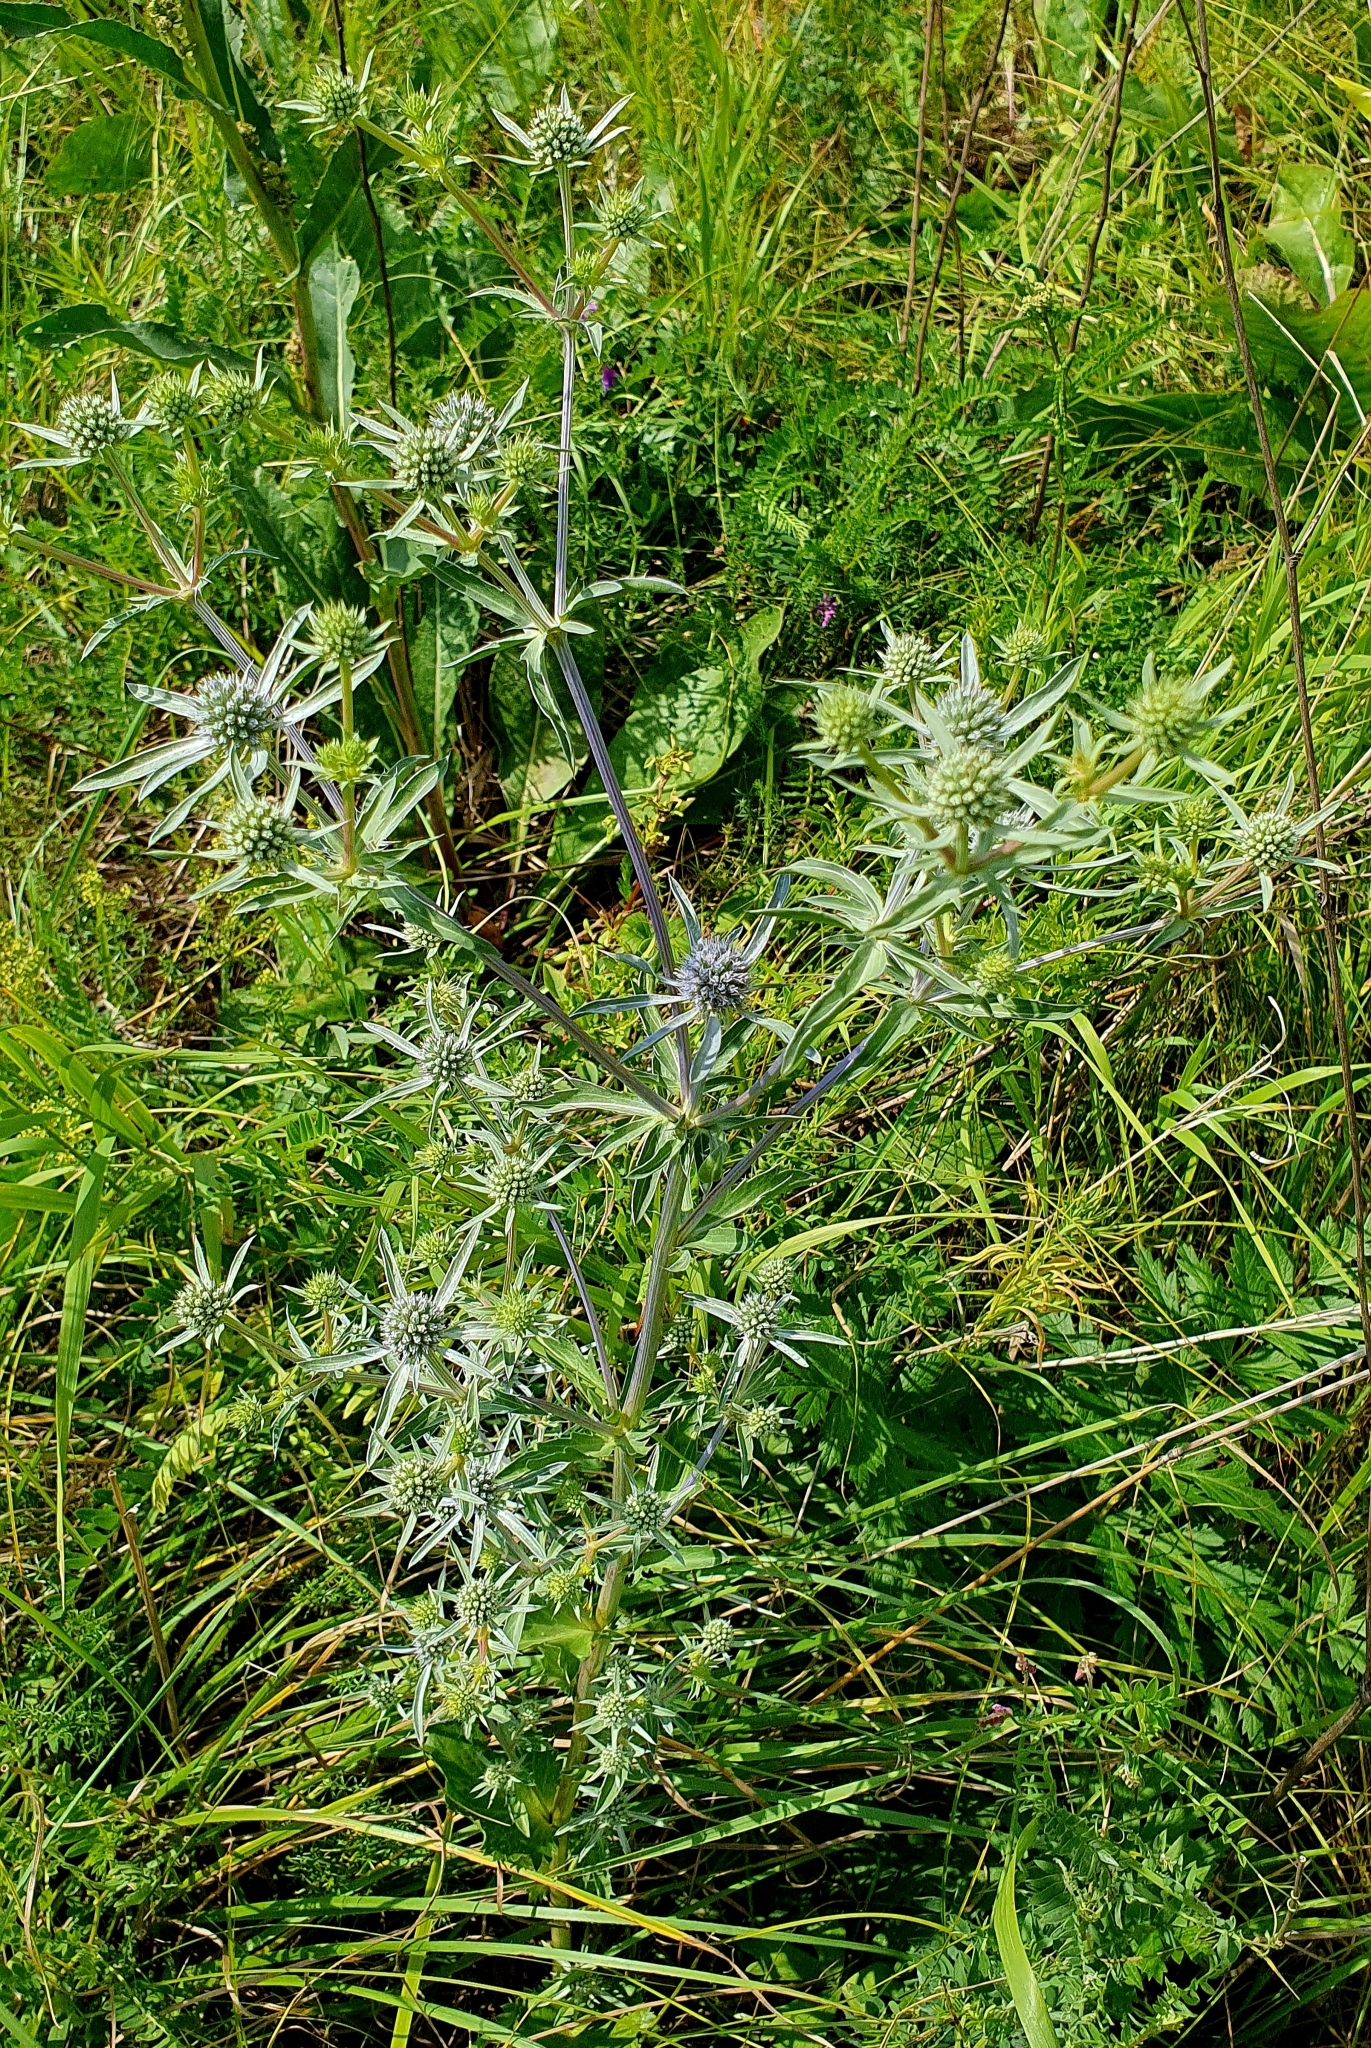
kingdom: Plantae
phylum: Tracheophyta
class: Magnoliopsida
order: Apiales
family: Apiaceae
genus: Eryngium
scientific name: Eryngium planum
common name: Blue eryngo
